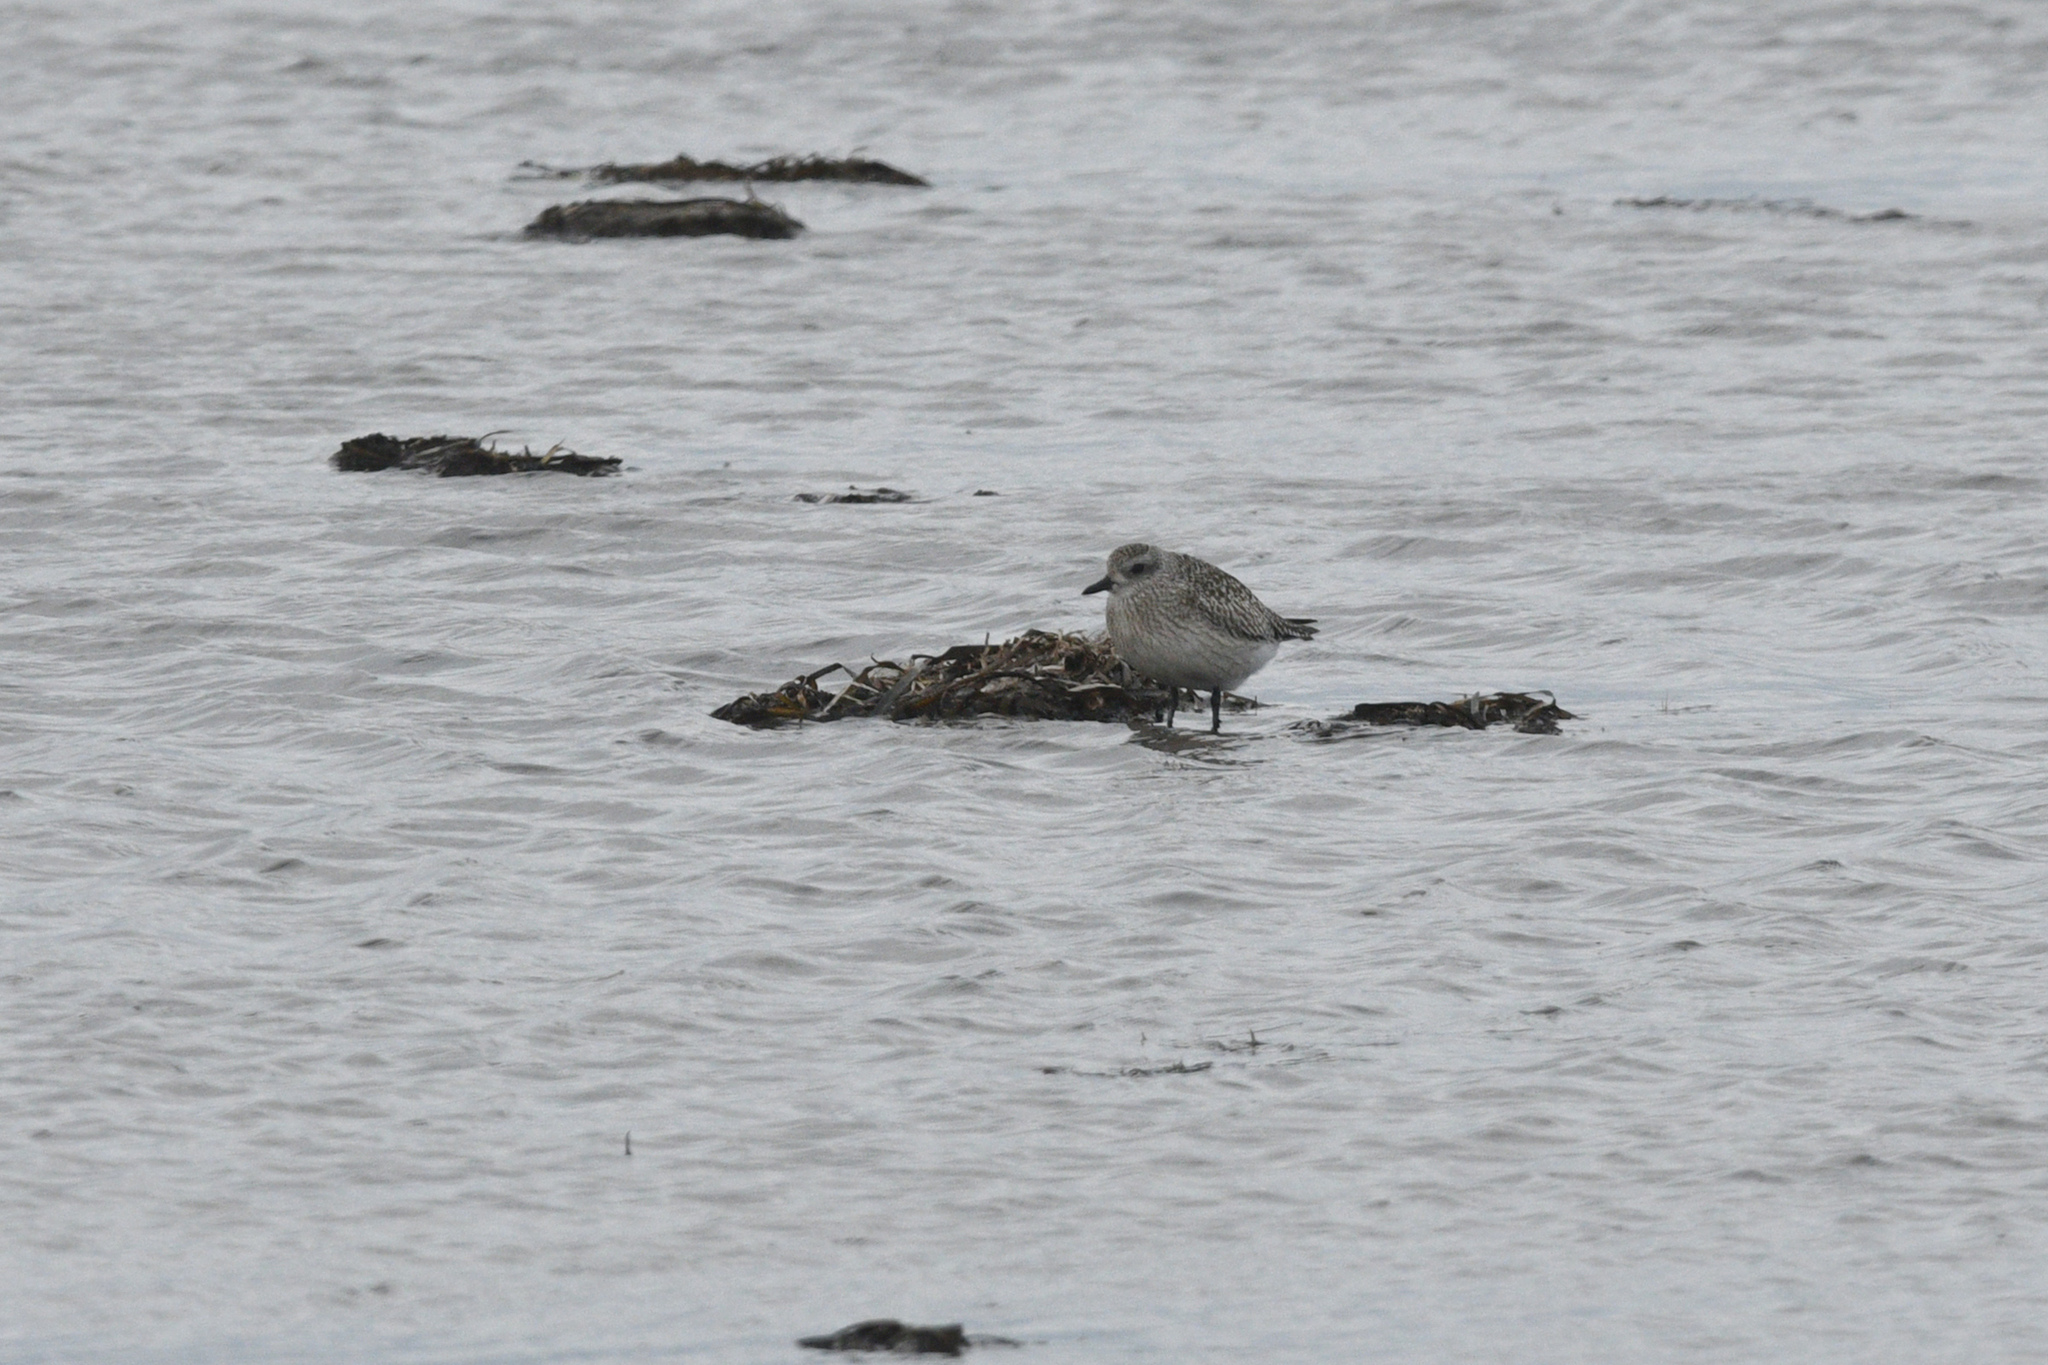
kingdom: Animalia
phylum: Chordata
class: Aves
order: Charadriiformes
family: Charadriidae
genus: Pluvialis
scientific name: Pluvialis squatarola
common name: Grey plover
